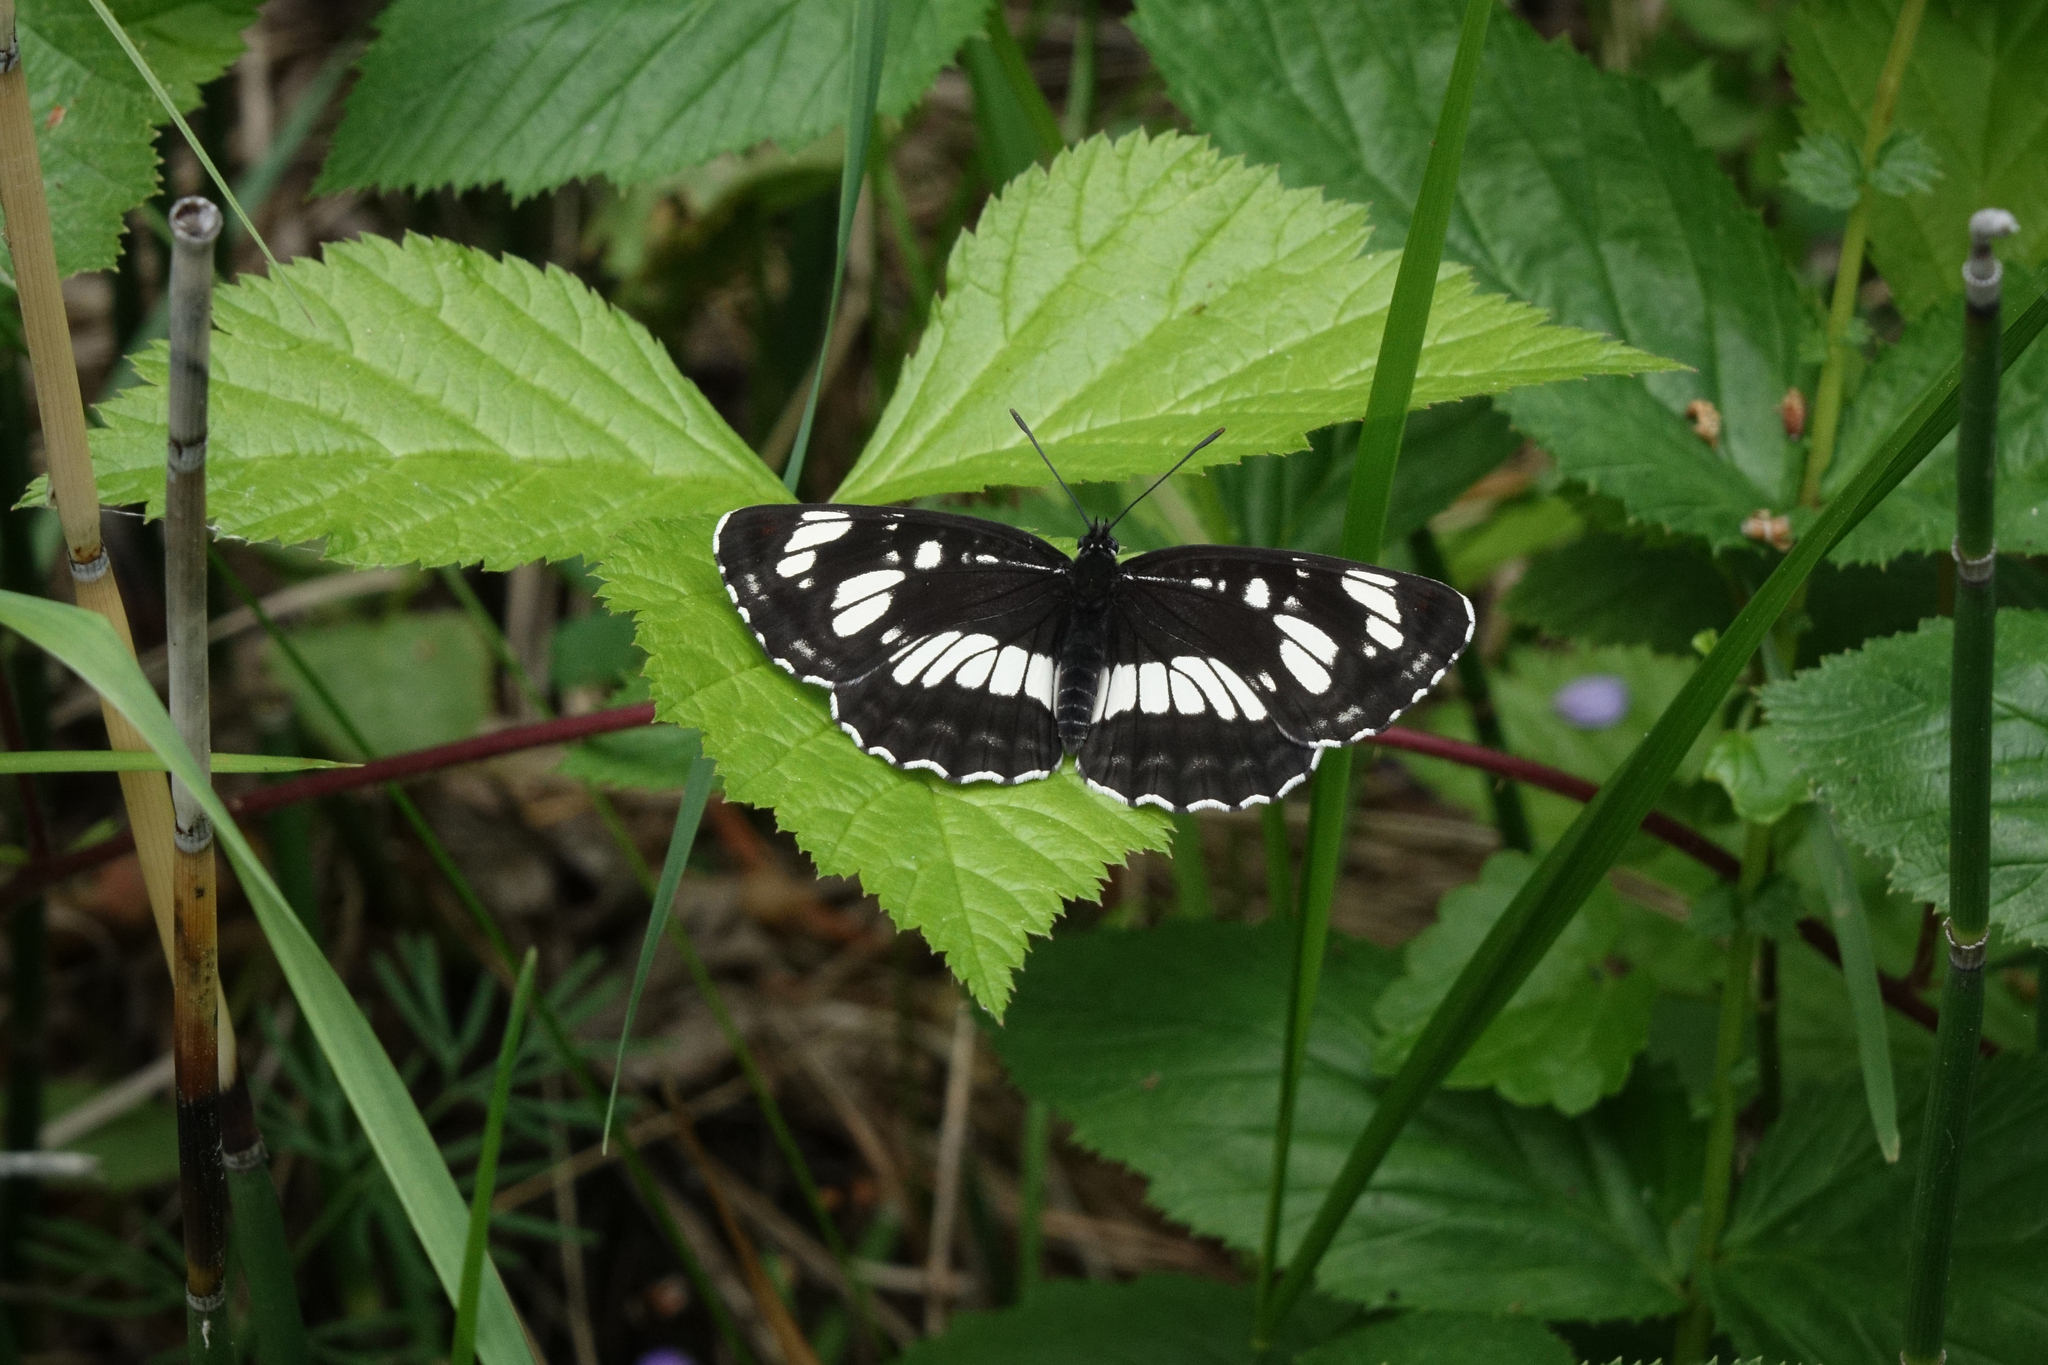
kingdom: Plantae
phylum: Tracheophyta
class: Magnoliopsida
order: Rosales
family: Rosaceae
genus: Rubus
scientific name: Rubus saxatilis
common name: Stone bramble
